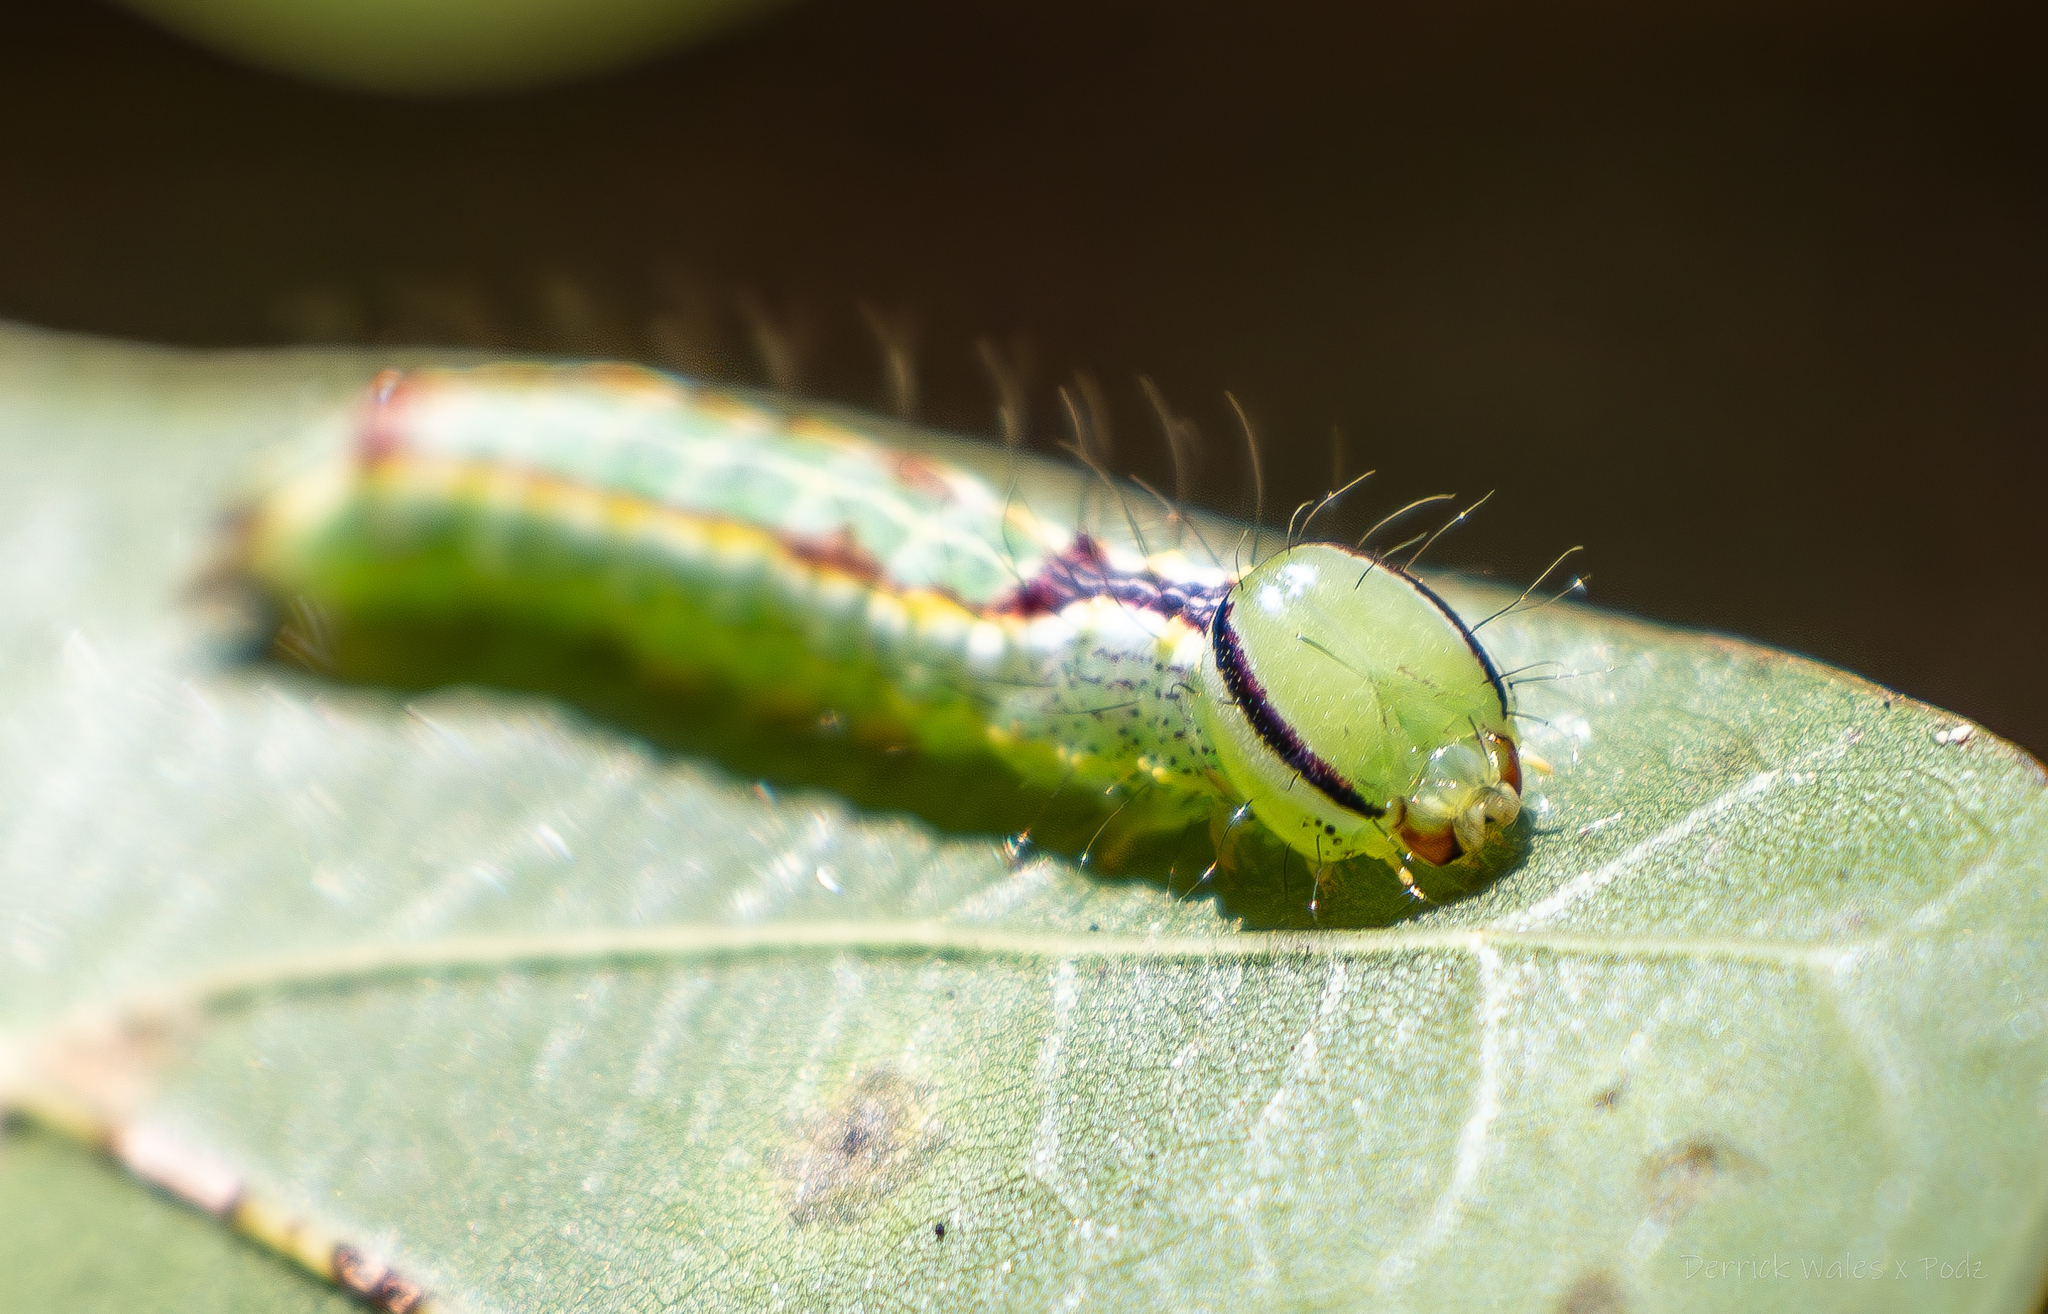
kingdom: Animalia
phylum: Arthropoda
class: Insecta
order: Lepidoptera
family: Notodontidae
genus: Lochmaeus
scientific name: Lochmaeus manteo
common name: Variable oakleaf caterpillar moth
